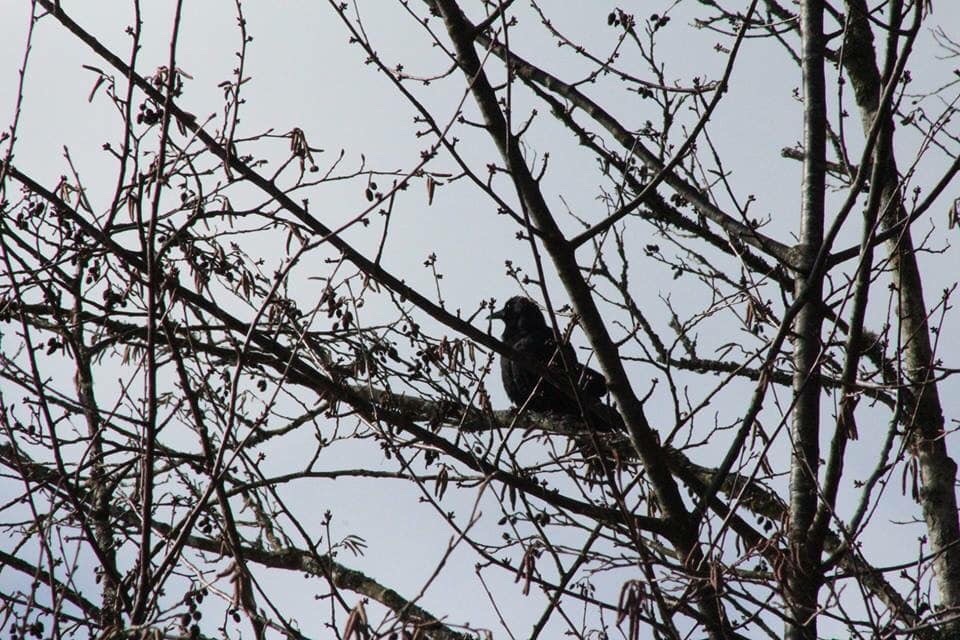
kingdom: Animalia
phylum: Chordata
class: Aves
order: Passeriformes
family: Corvidae
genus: Corvus
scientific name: Corvus corax
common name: Common raven
